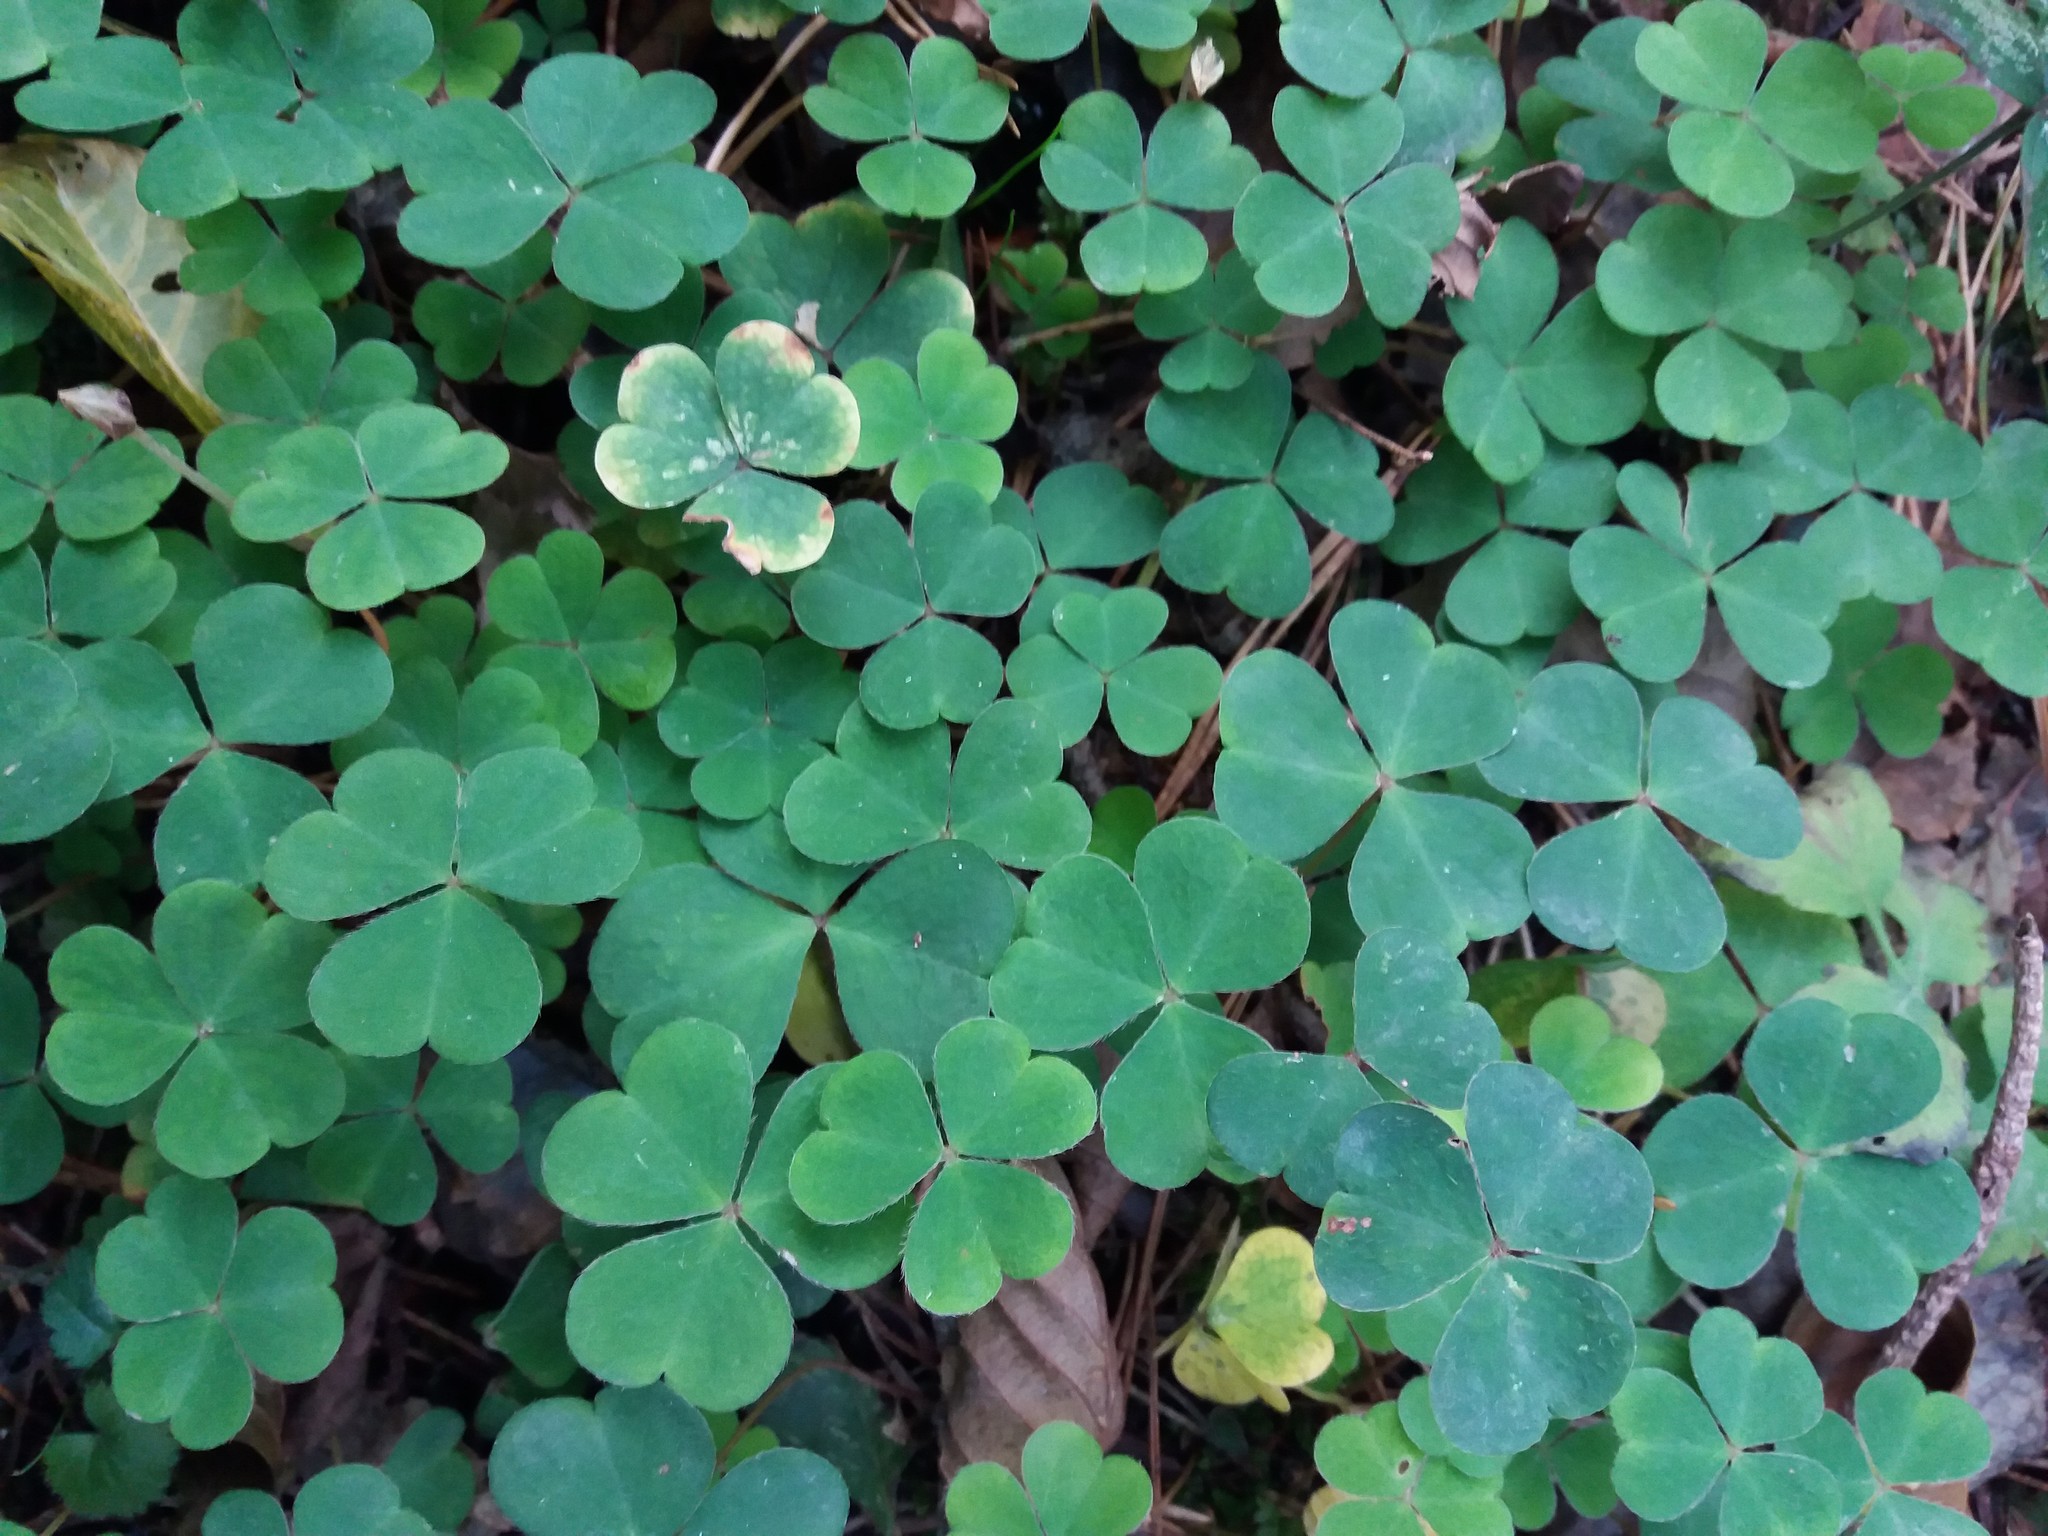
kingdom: Plantae
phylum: Tracheophyta
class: Magnoliopsida
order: Oxalidales
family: Oxalidaceae
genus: Oxalis
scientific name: Oxalis acetosella
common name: Wood-sorrel
